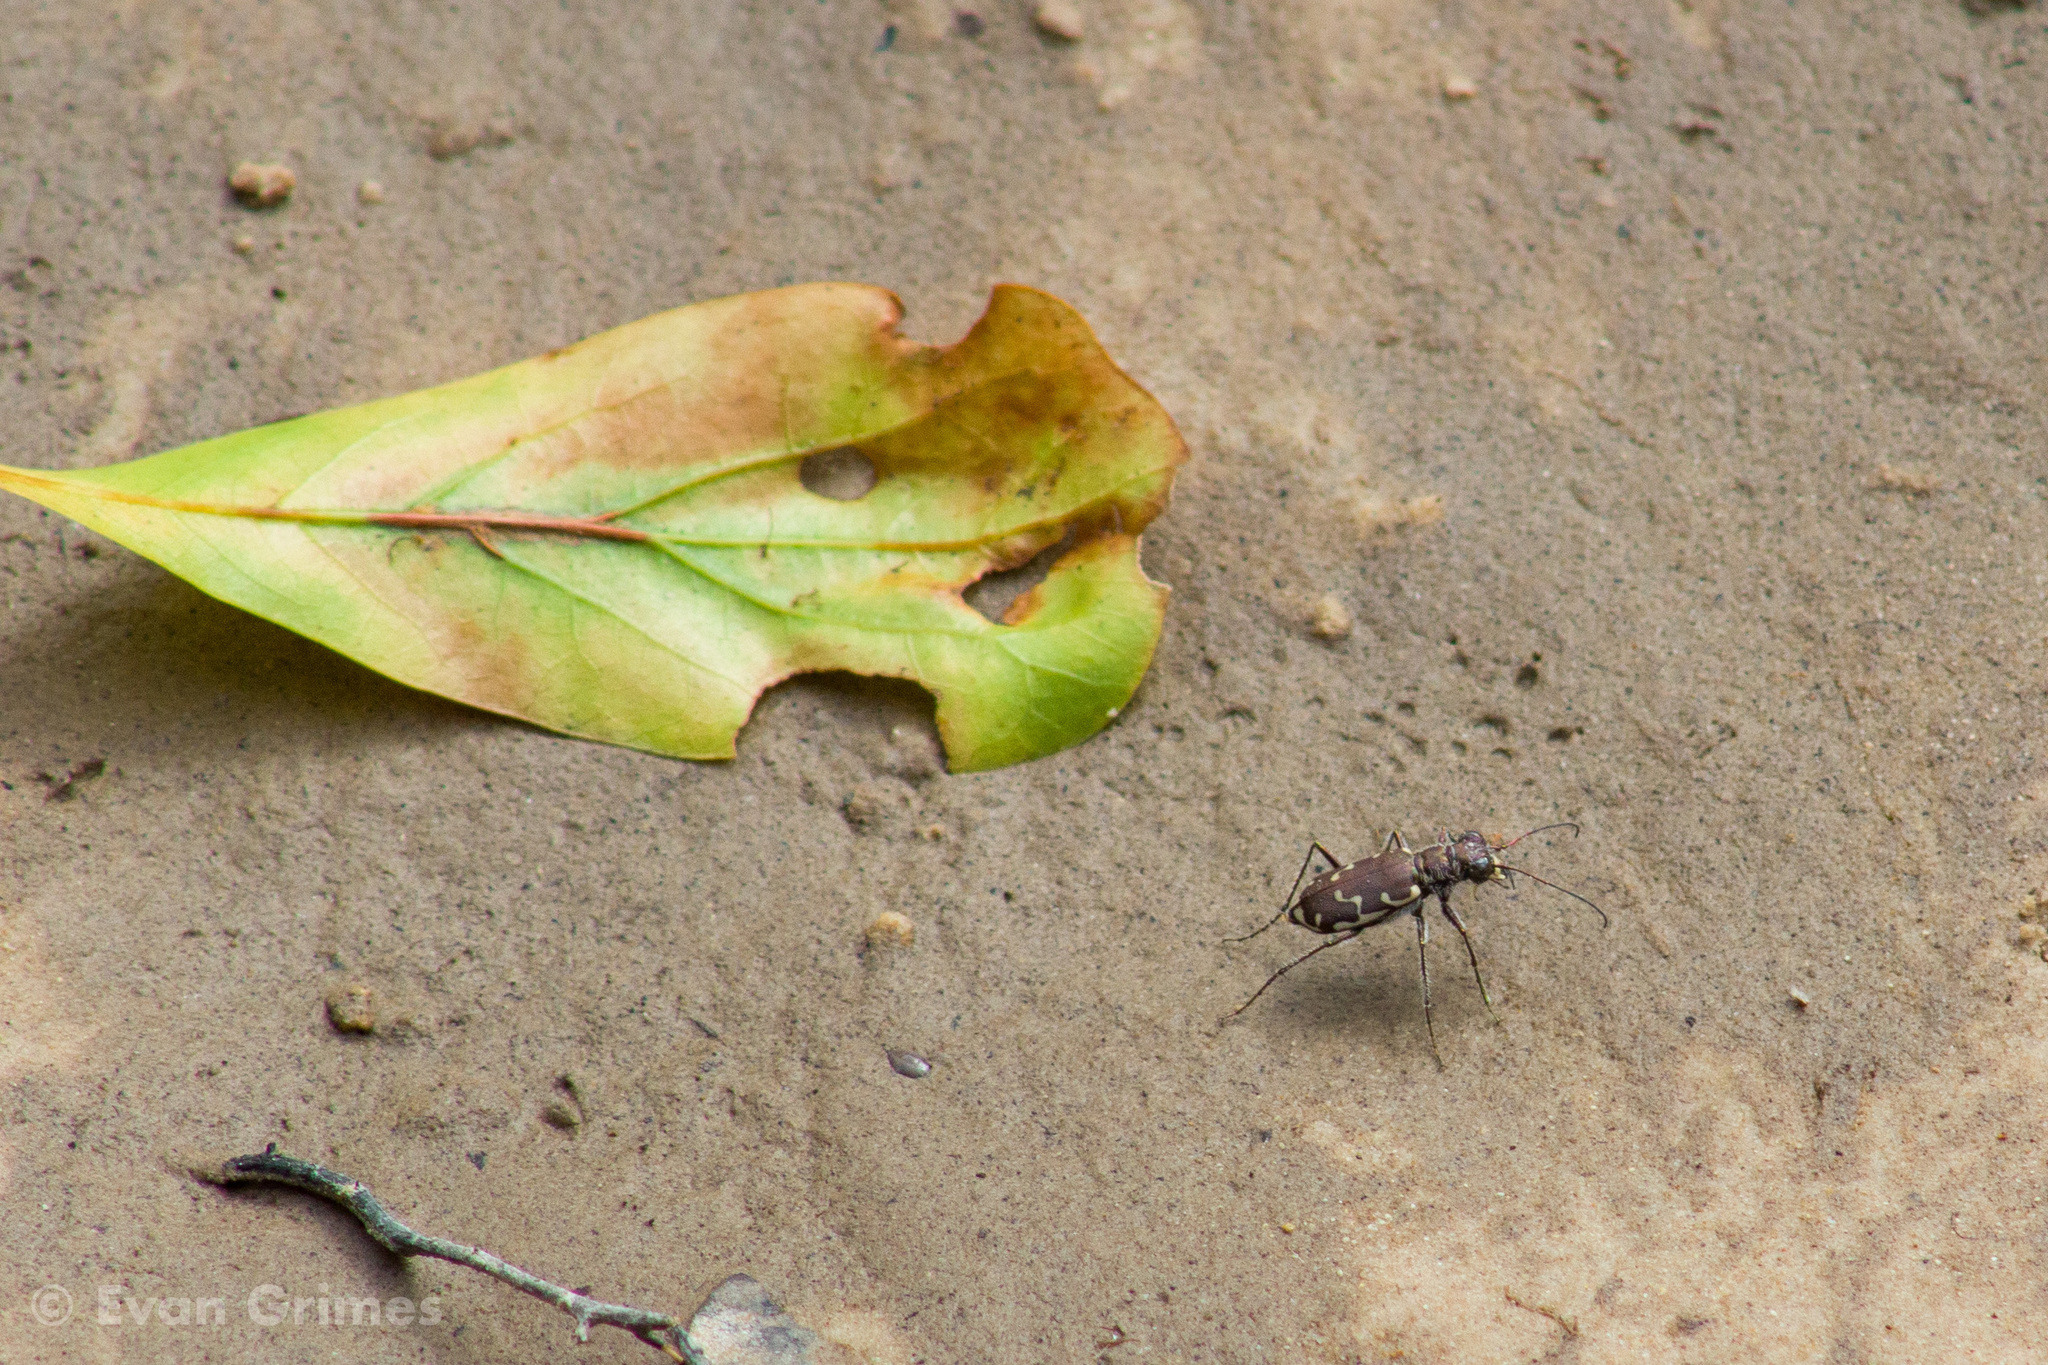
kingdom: Animalia
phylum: Arthropoda
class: Insecta
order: Coleoptera
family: Carabidae
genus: Cicindela
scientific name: Cicindela repanda
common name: Bronzed tiger beetle
